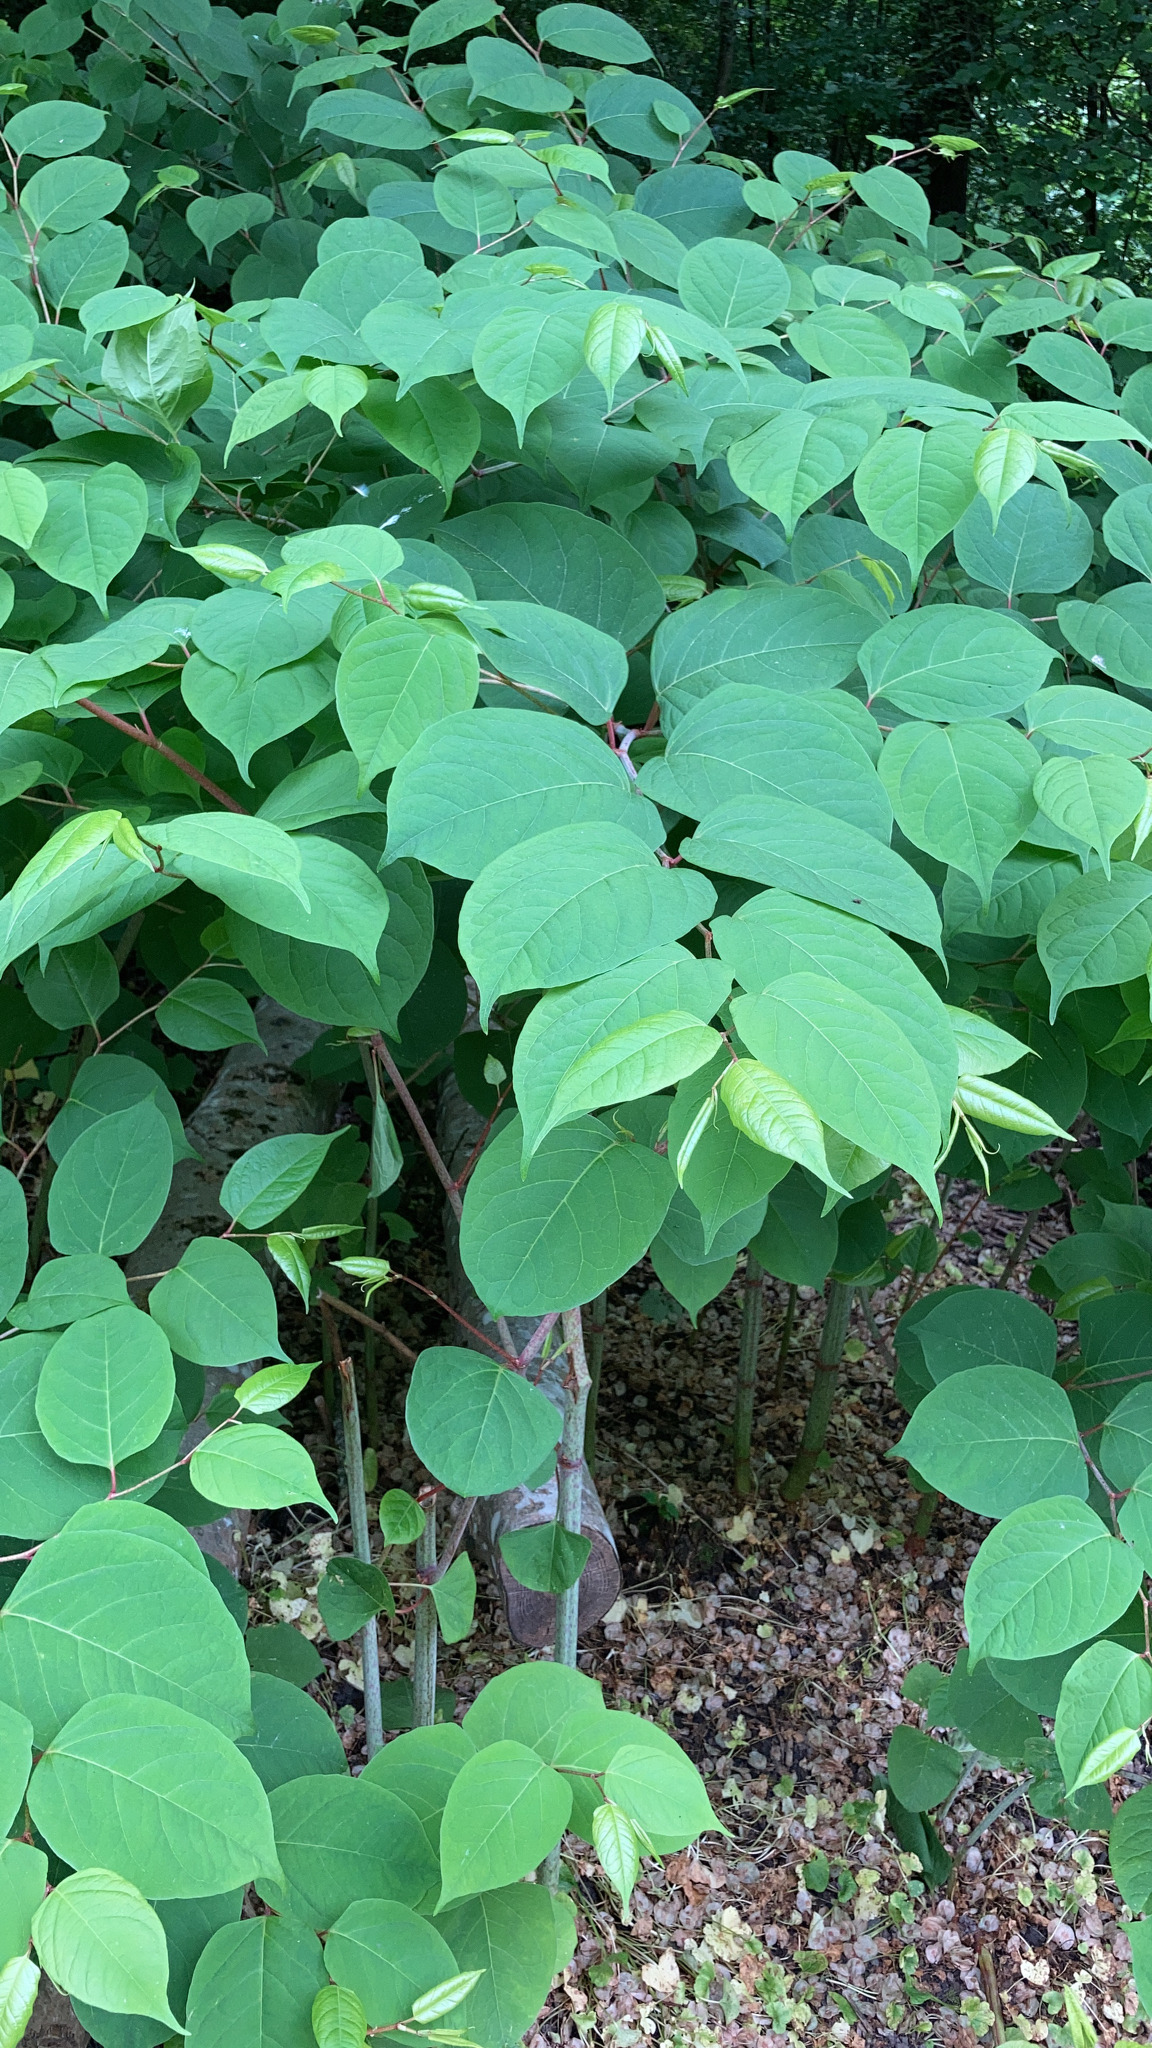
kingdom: Plantae
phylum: Tracheophyta
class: Magnoliopsida
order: Caryophyllales
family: Polygonaceae
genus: Reynoutria
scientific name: Reynoutria japonica
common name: Japanese knotweed
